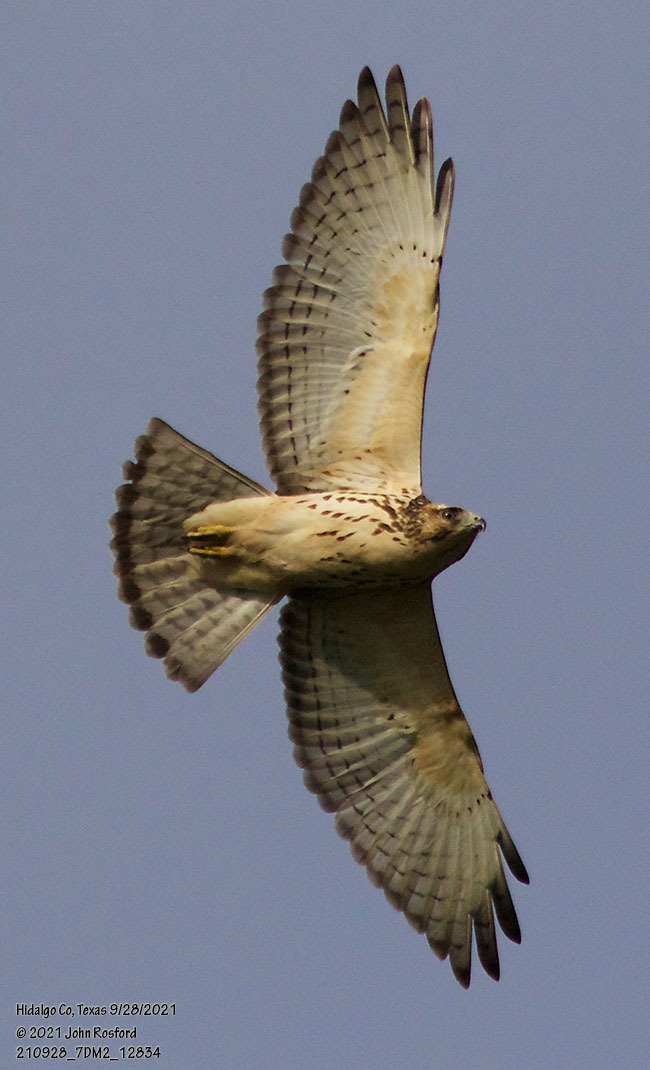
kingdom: Animalia
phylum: Chordata
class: Aves
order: Accipitriformes
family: Accipitridae
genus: Buteo
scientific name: Buteo platypterus
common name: Broad-winged hawk
